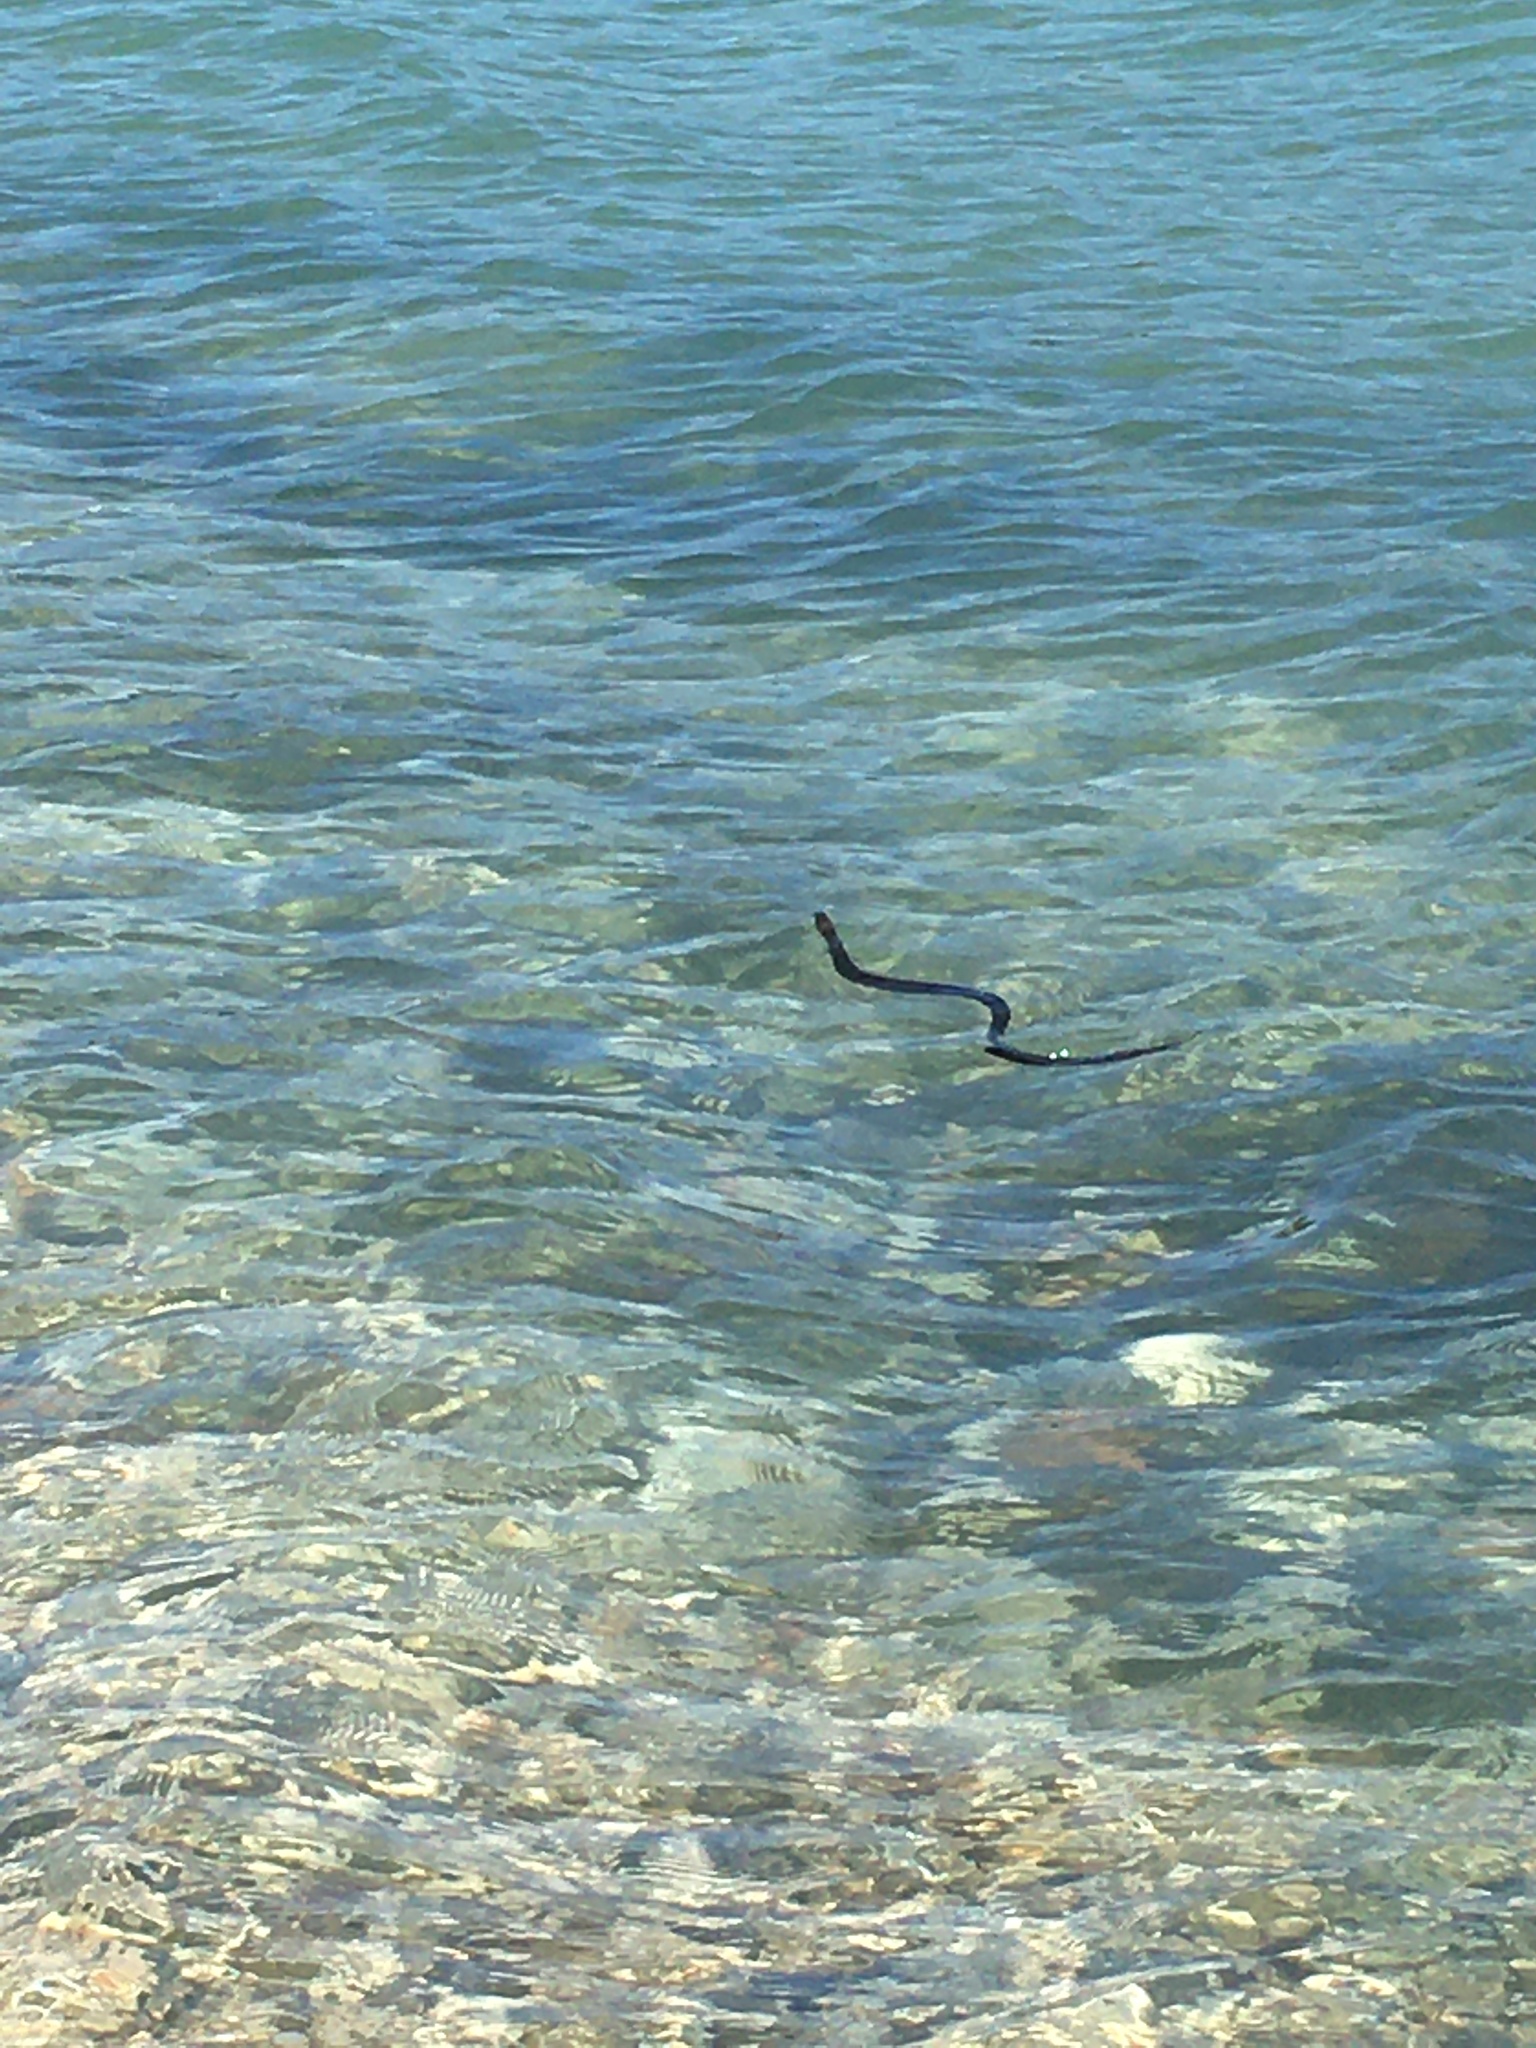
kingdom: Animalia
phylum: Chordata
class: Squamata
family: Colubridae
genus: Nerodia
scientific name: Nerodia sipedon
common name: Northern water snake
